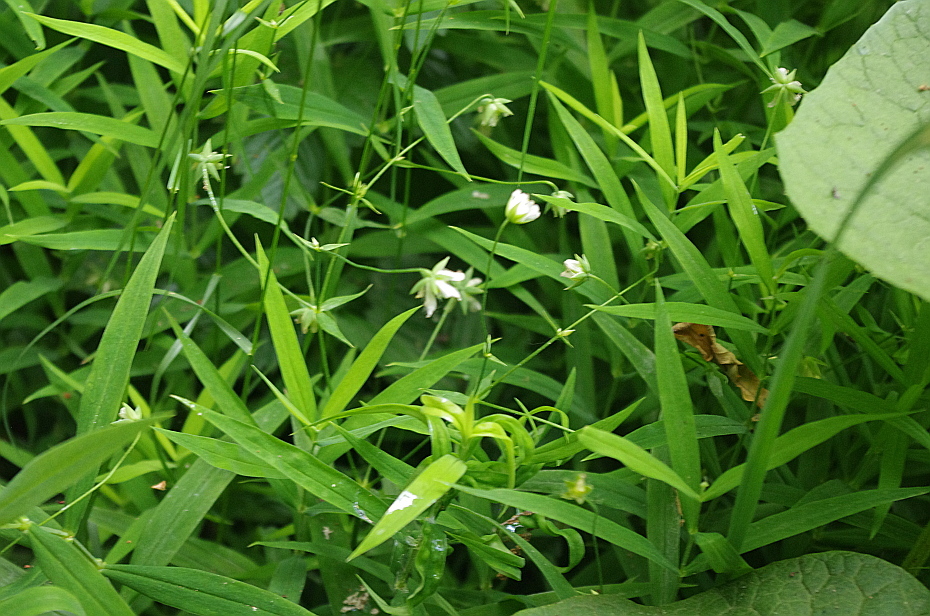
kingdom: Plantae
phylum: Tracheophyta
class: Magnoliopsida
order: Caryophyllales
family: Caryophyllaceae
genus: Rabelera
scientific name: Rabelera holostea
